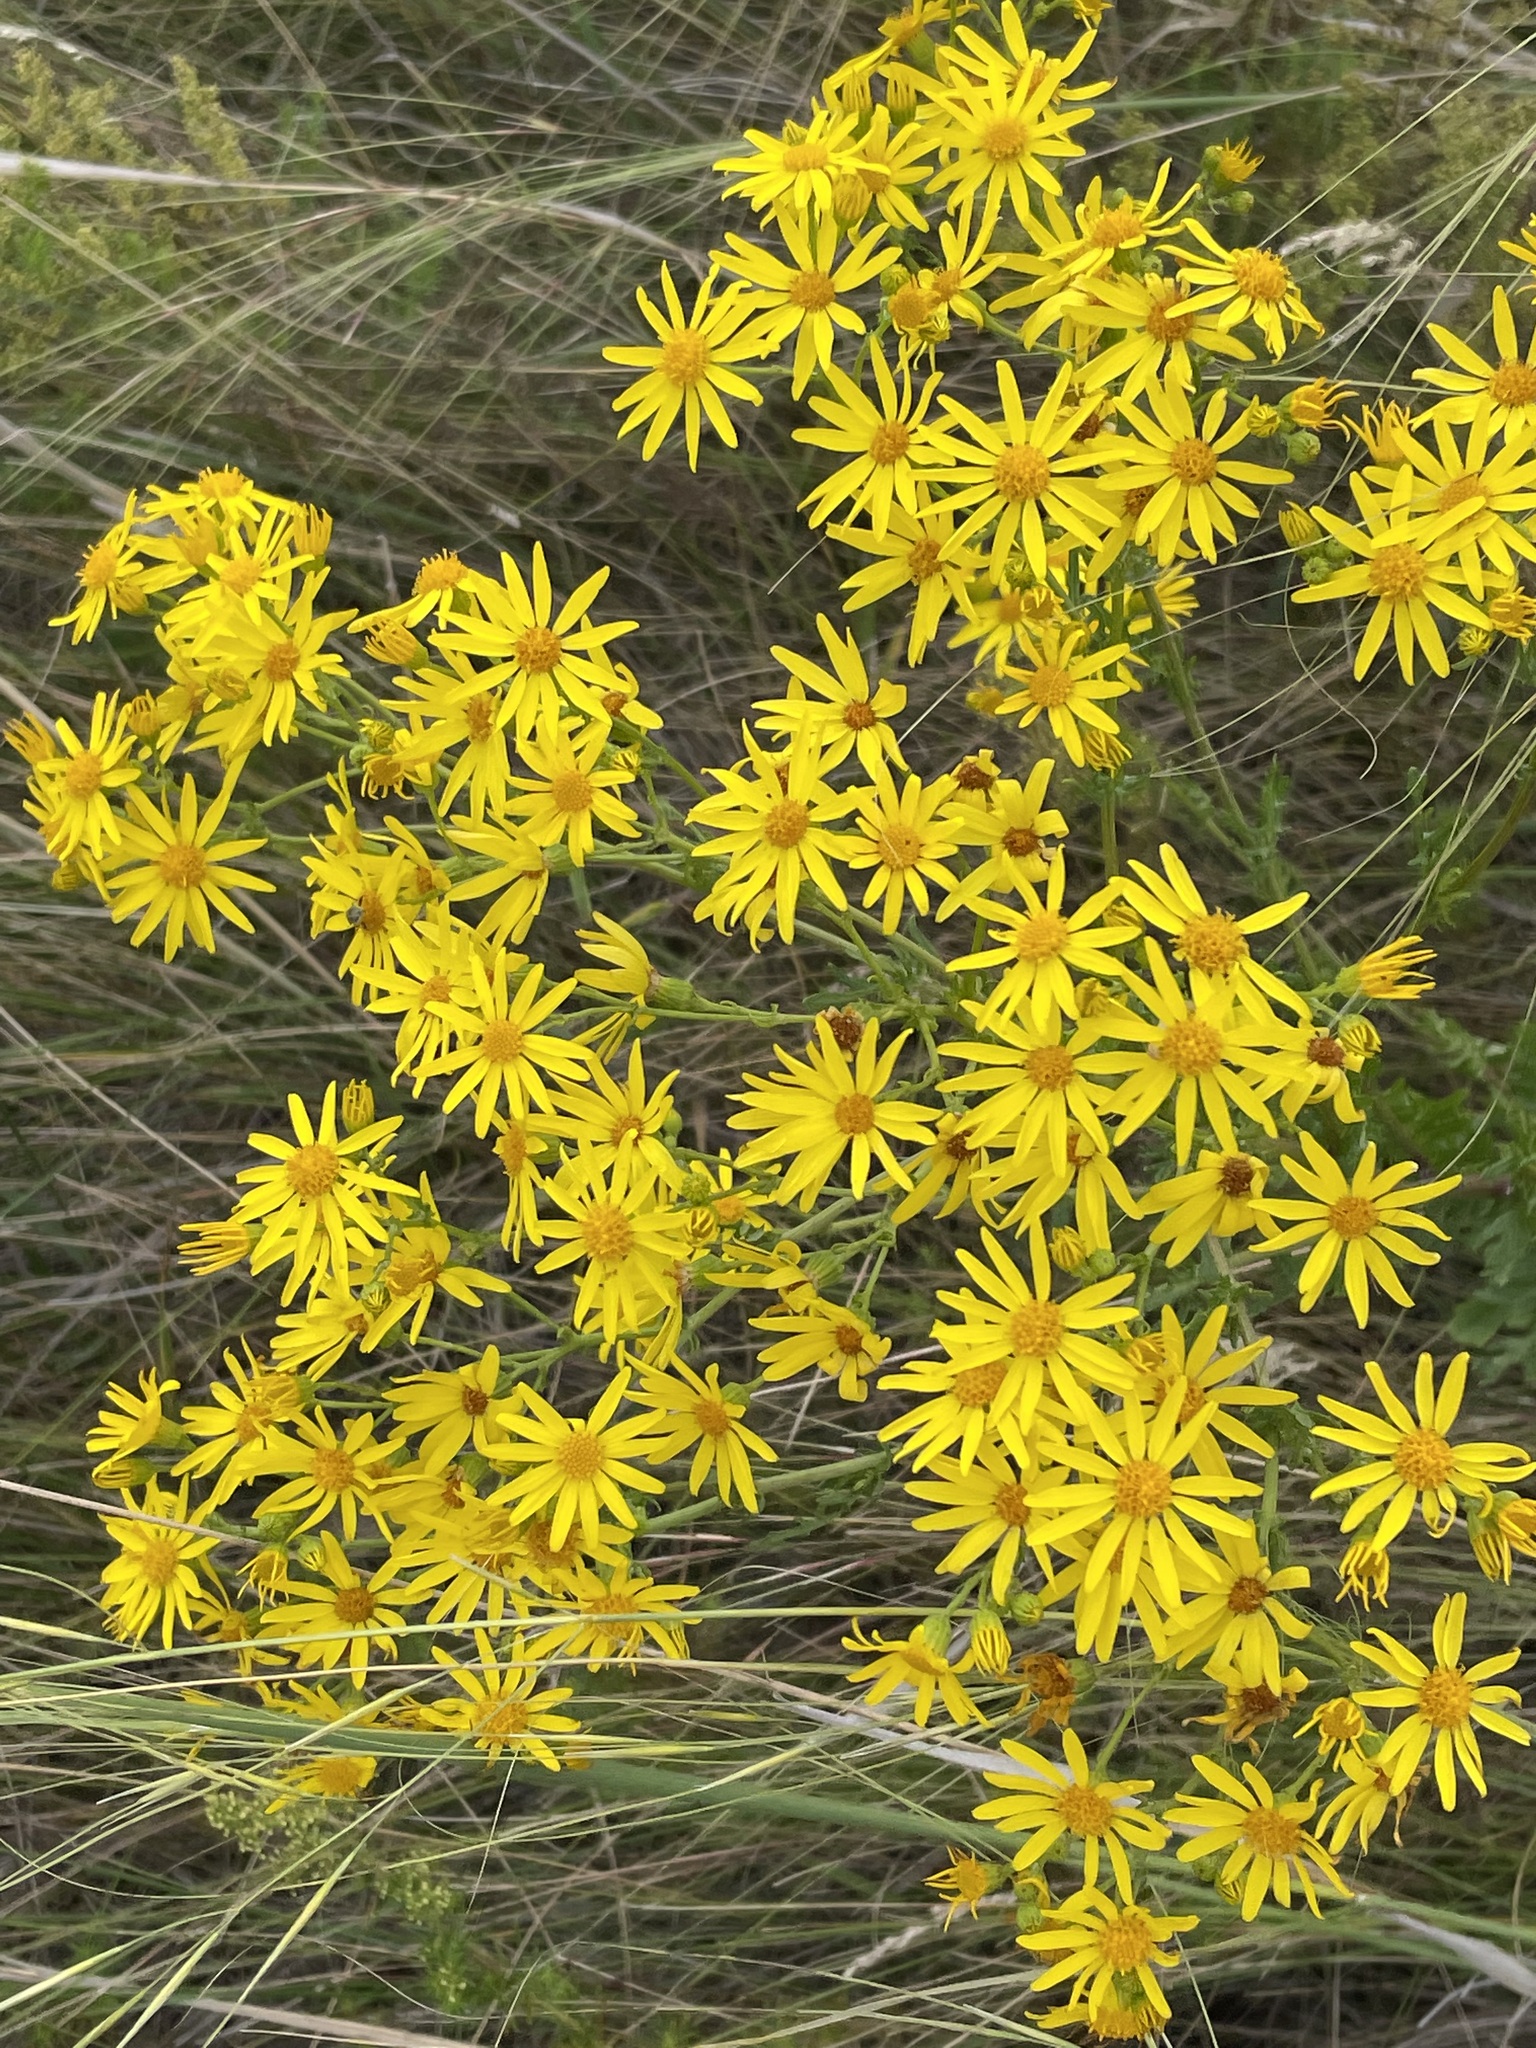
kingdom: Plantae
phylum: Tracheophyta
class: Magnoliopsida
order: Asterales
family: Asteraceae
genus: Jacobaea
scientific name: Jacobaea vulgaris
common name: Stinking willie
